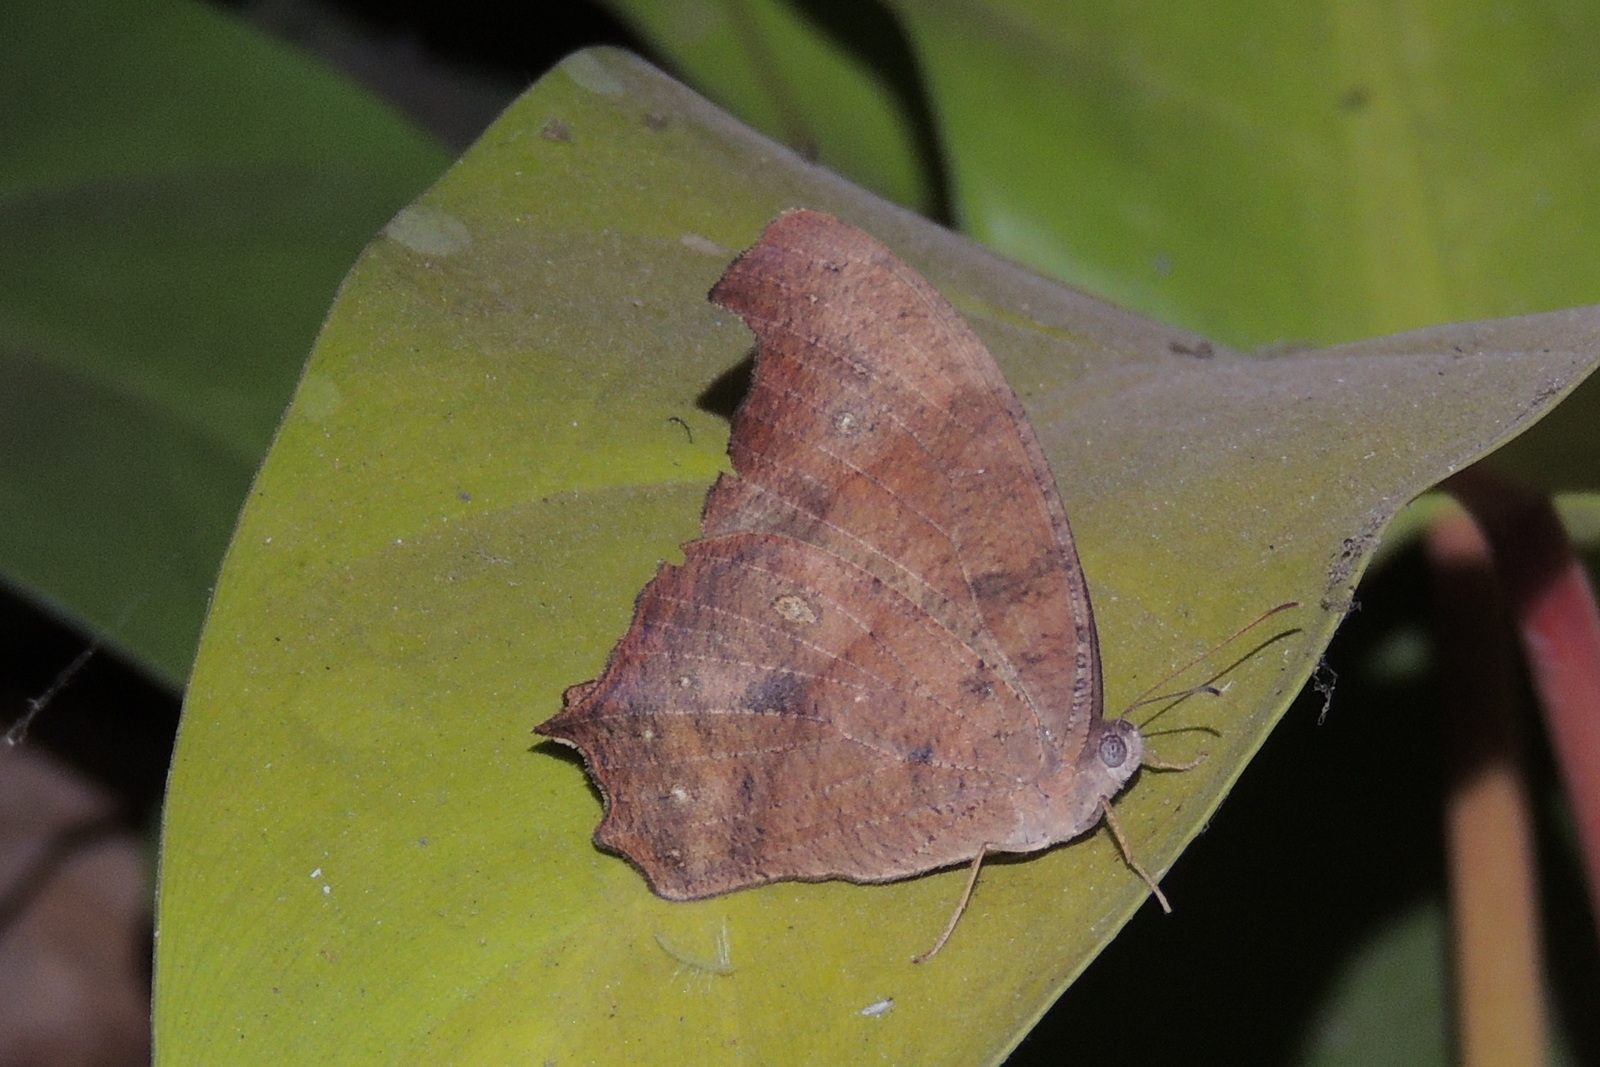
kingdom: Animalia
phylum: Arthropoda
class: Insecta
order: Lepidoptera
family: Nymphalidae
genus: Melanitis
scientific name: Melanitis leda
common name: Twilight brown
